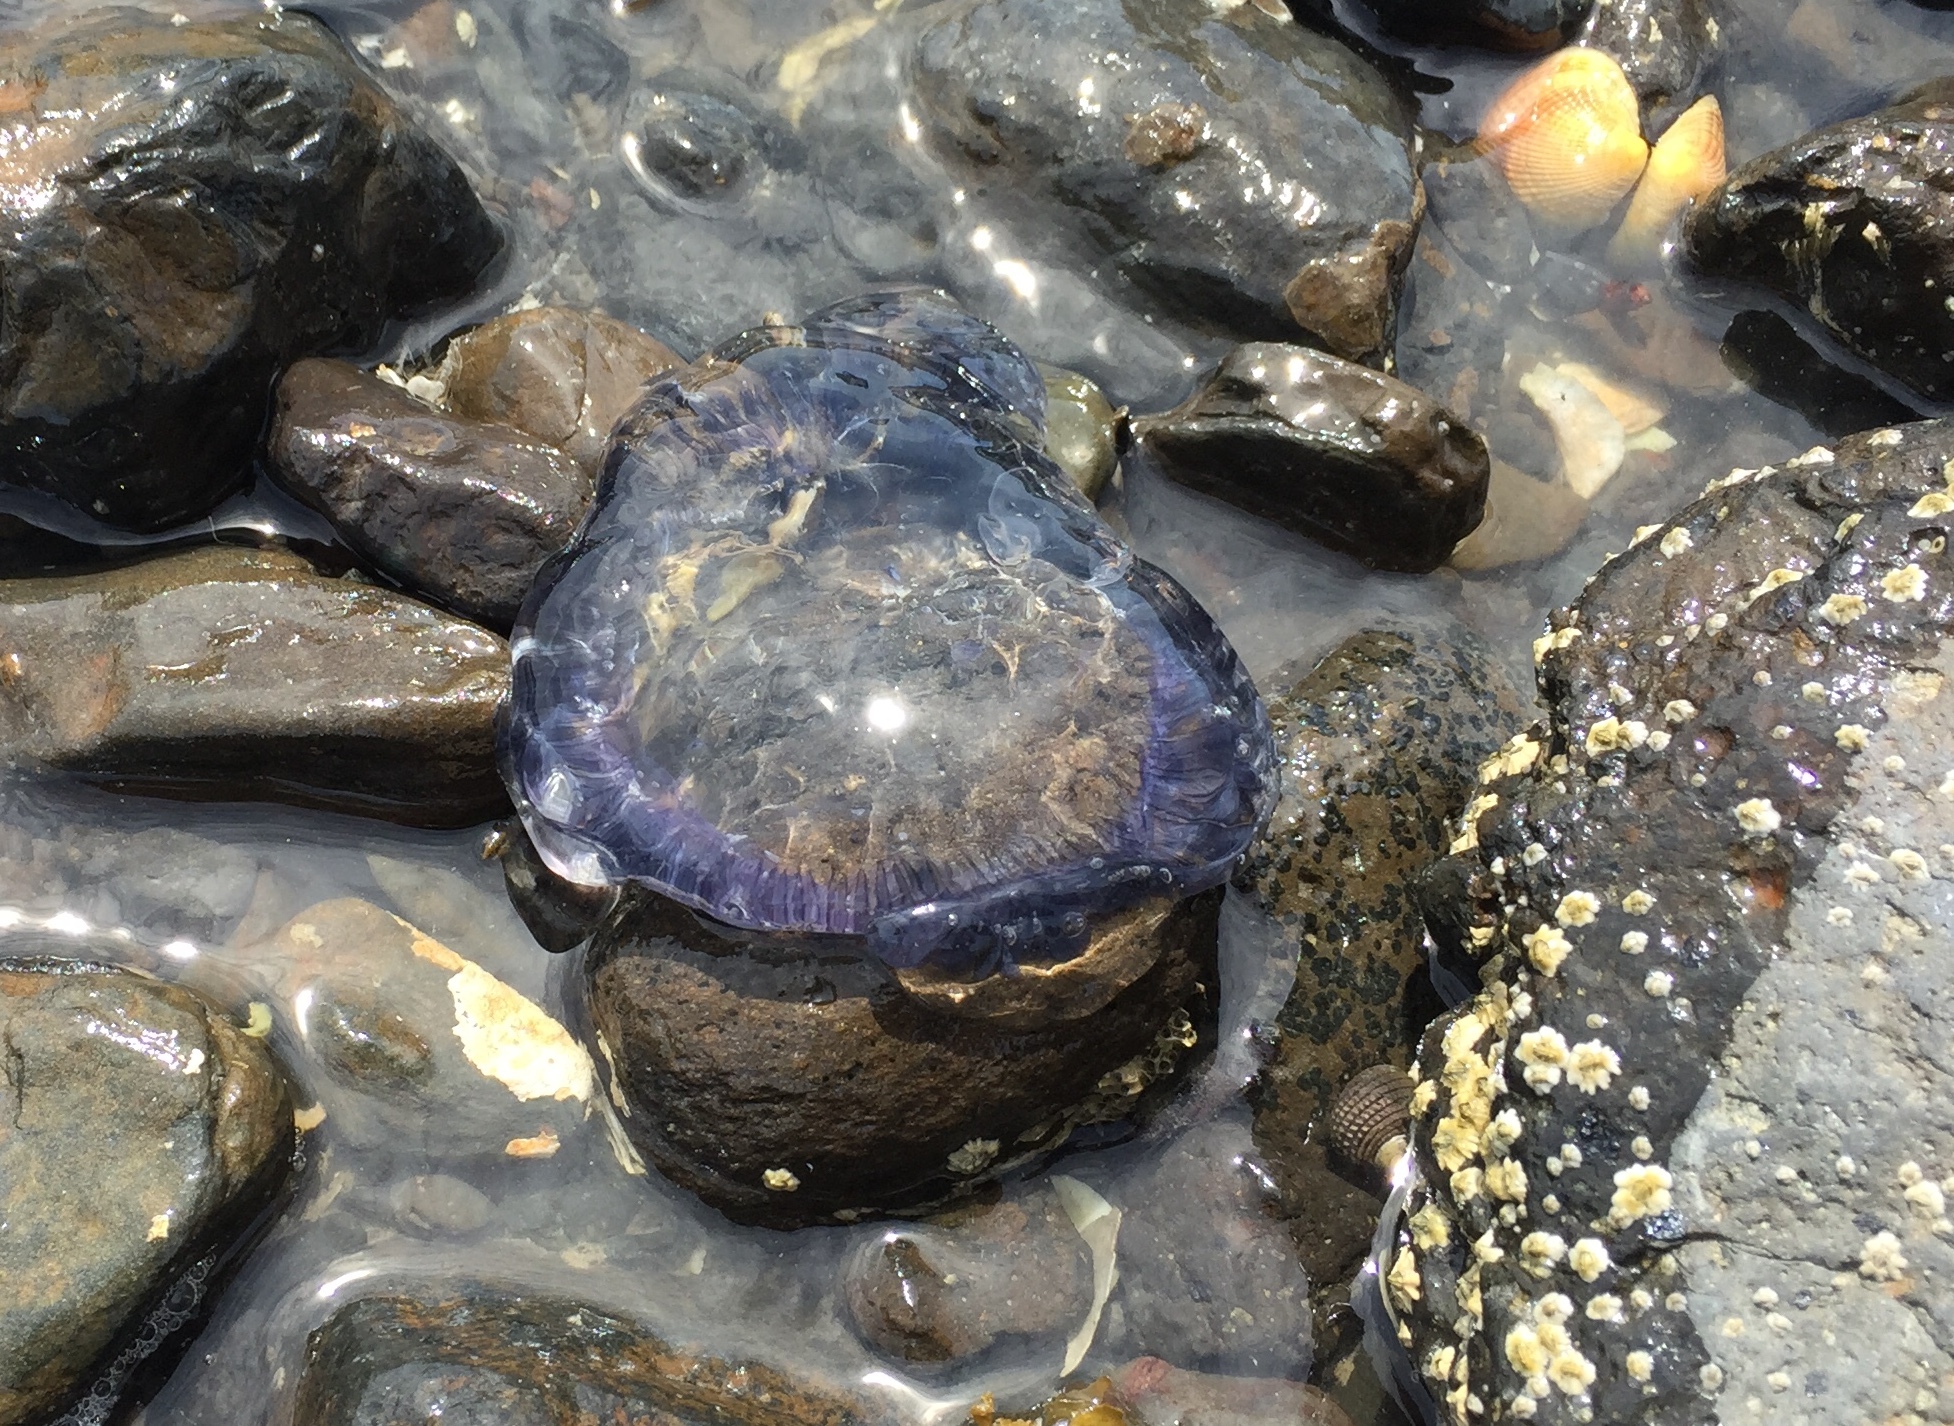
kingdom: Animalia
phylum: Cnidaria
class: Hydrozoa
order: Leptothecata
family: Aequoreidae
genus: Aequorea
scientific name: Aequorea forskalea
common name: Many-ribbed jellyfish
